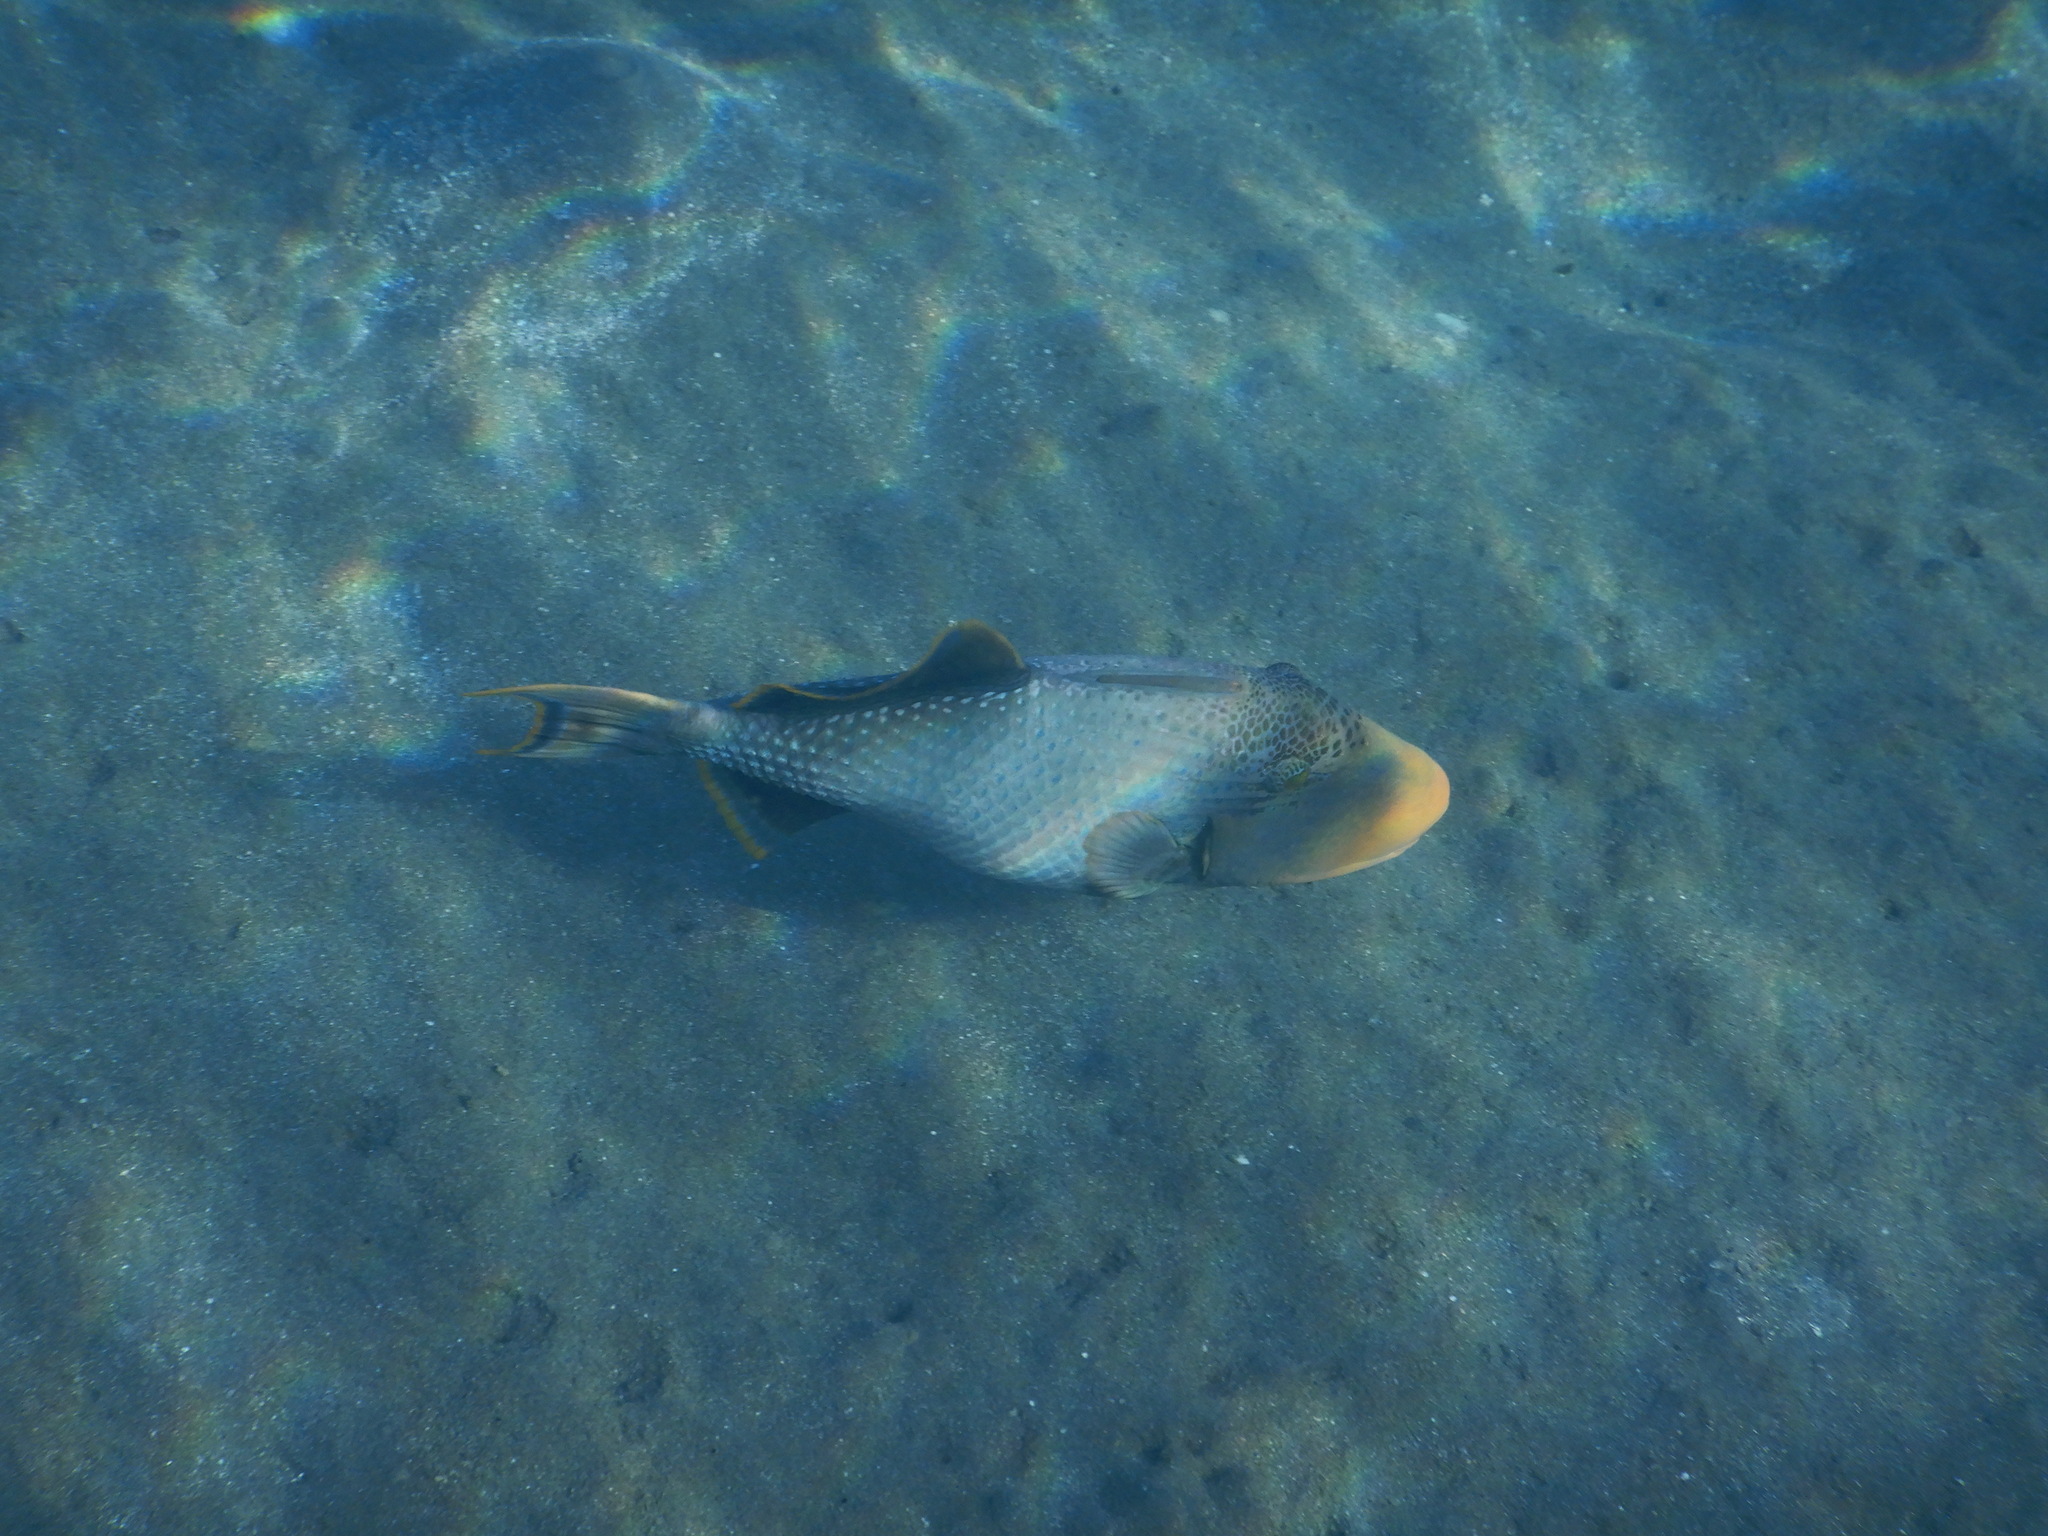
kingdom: Animalia
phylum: Chordata
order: Tetraodontiformes
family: Balistidae
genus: Pseudobalistes
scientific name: Pseudobalistes flavimarginatus
